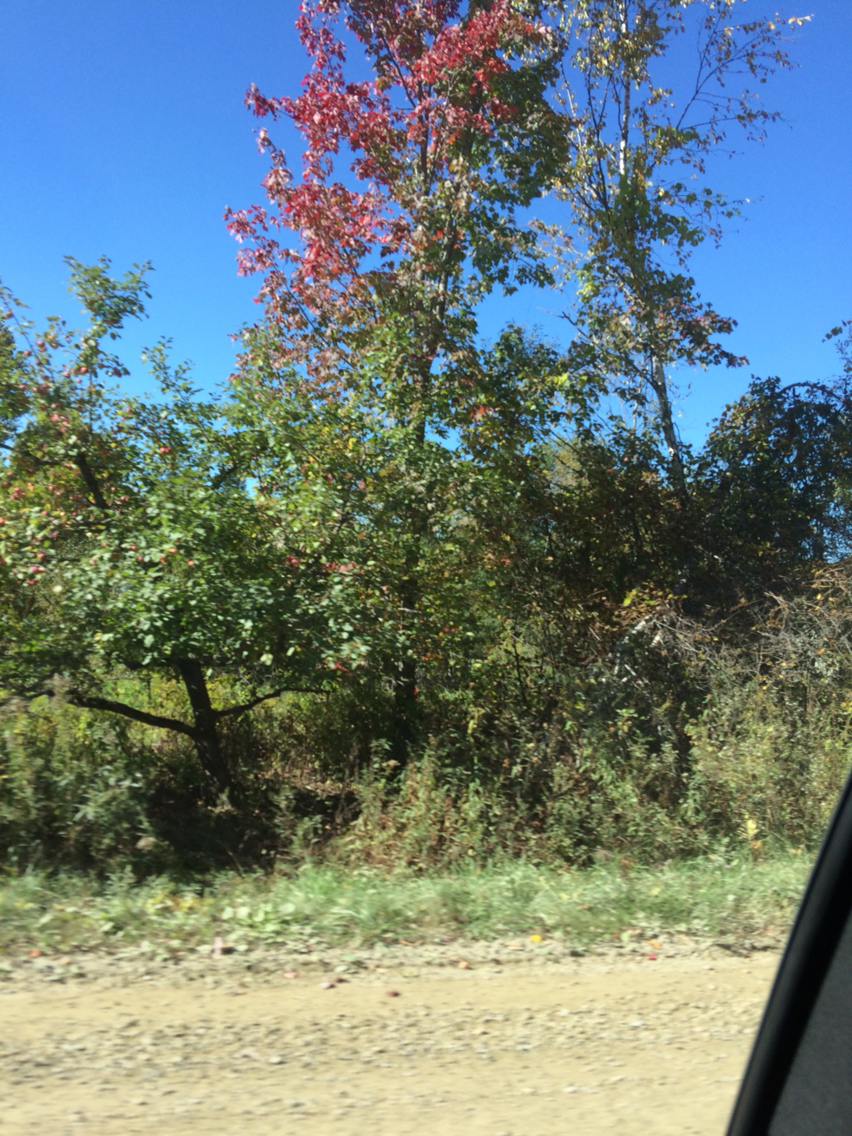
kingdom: Plantae
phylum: Tracheophyta
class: Magnoliopsida
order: Sapindales
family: Sapindaceae
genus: Acer
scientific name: Acer rubrum
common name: Red maple
